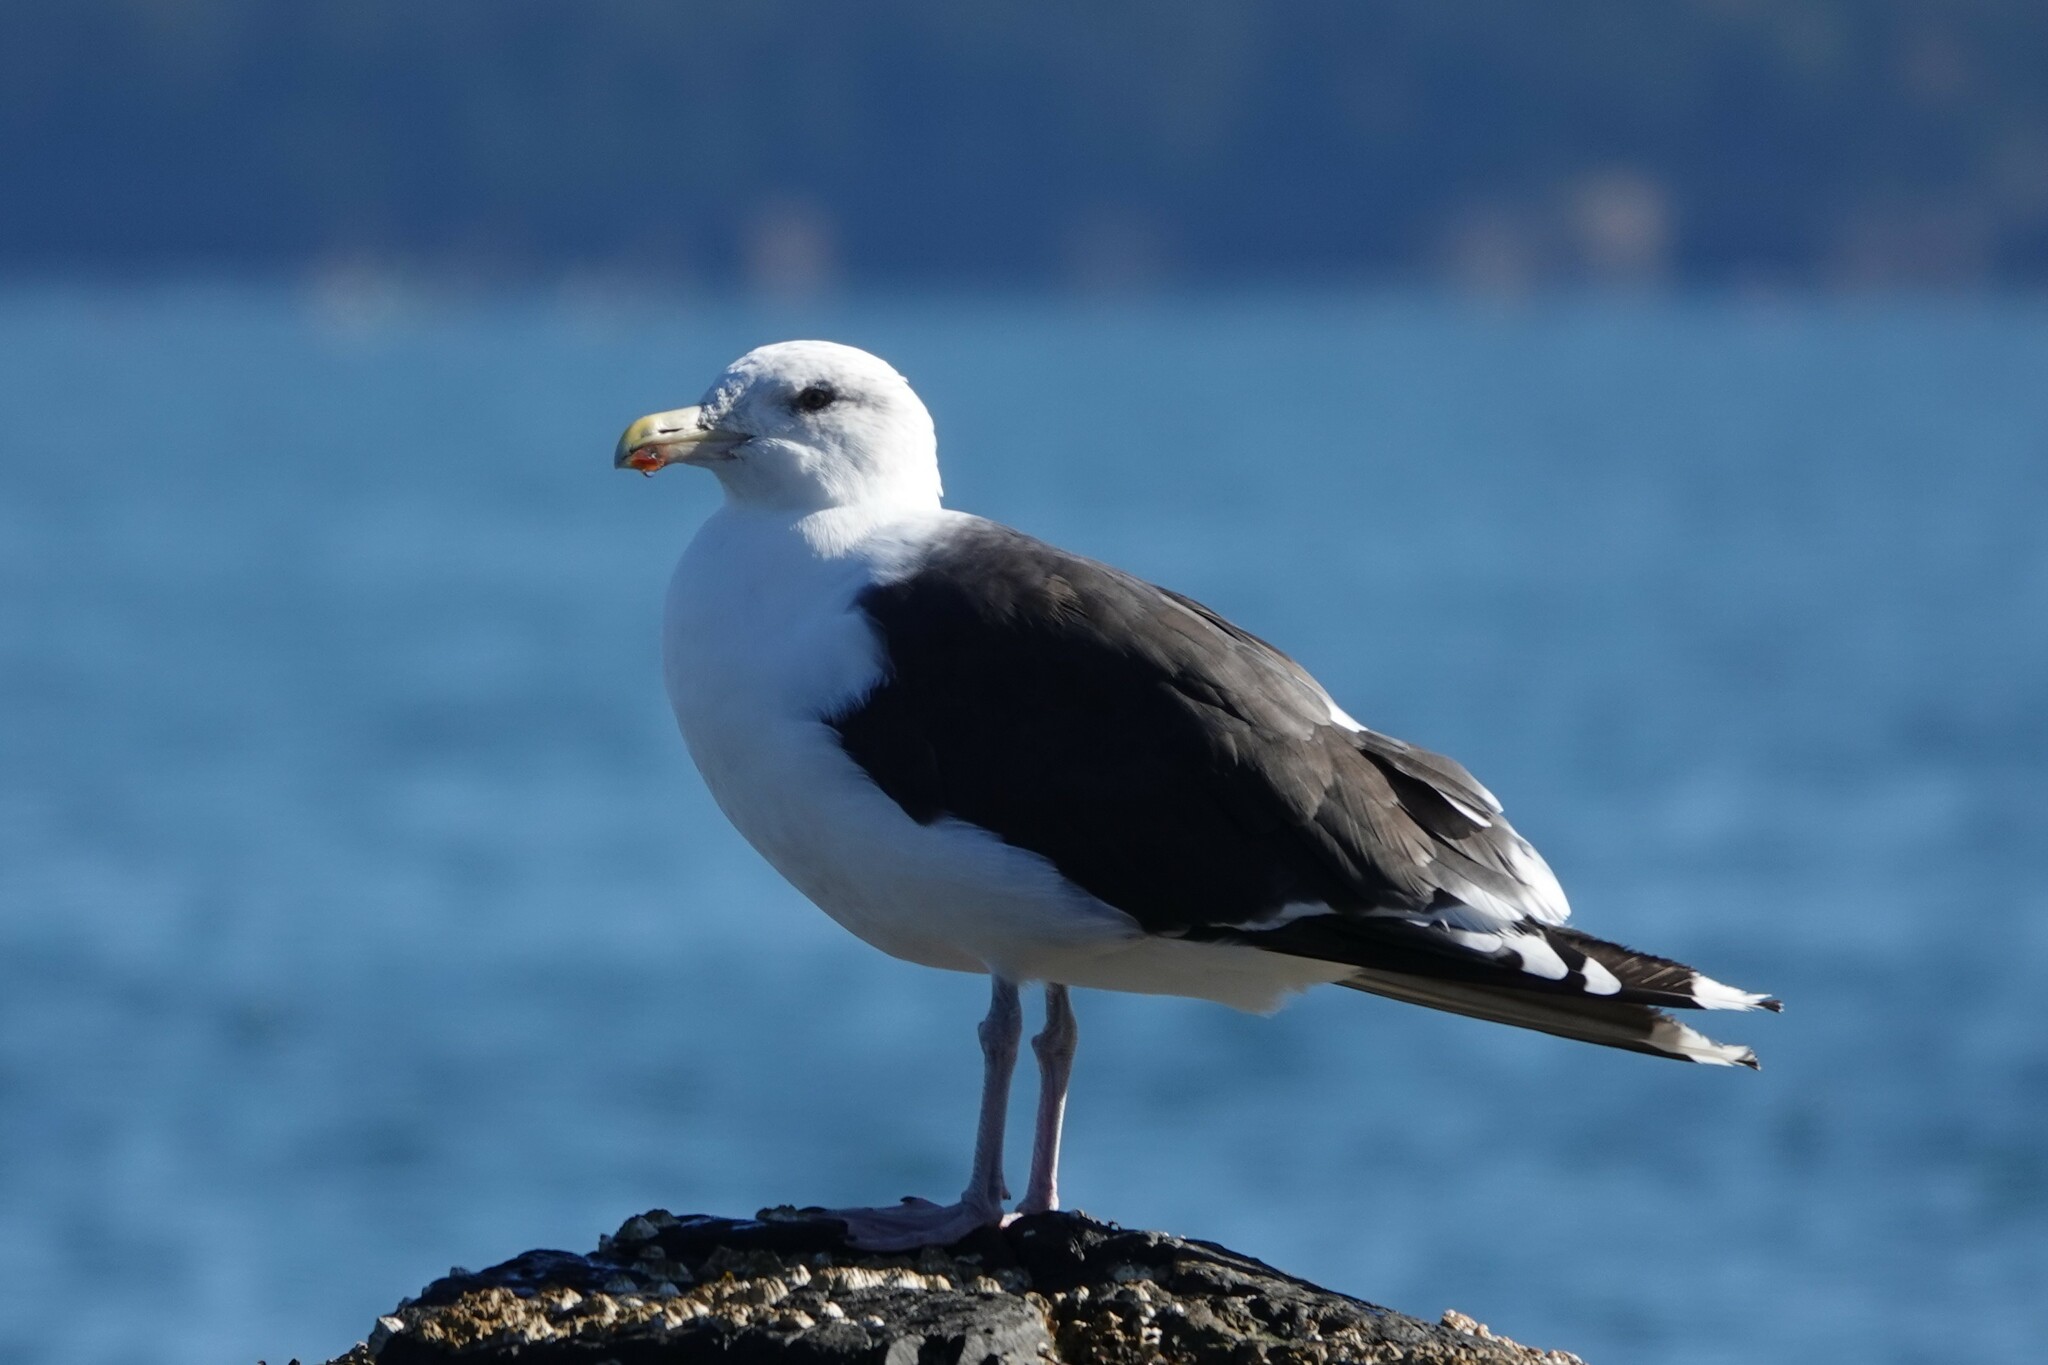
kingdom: Animalia
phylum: Chordata
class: Aves
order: Charadriiformes
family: Laridae
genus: Larus
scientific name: Larus marinus
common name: Great black-backed gull
